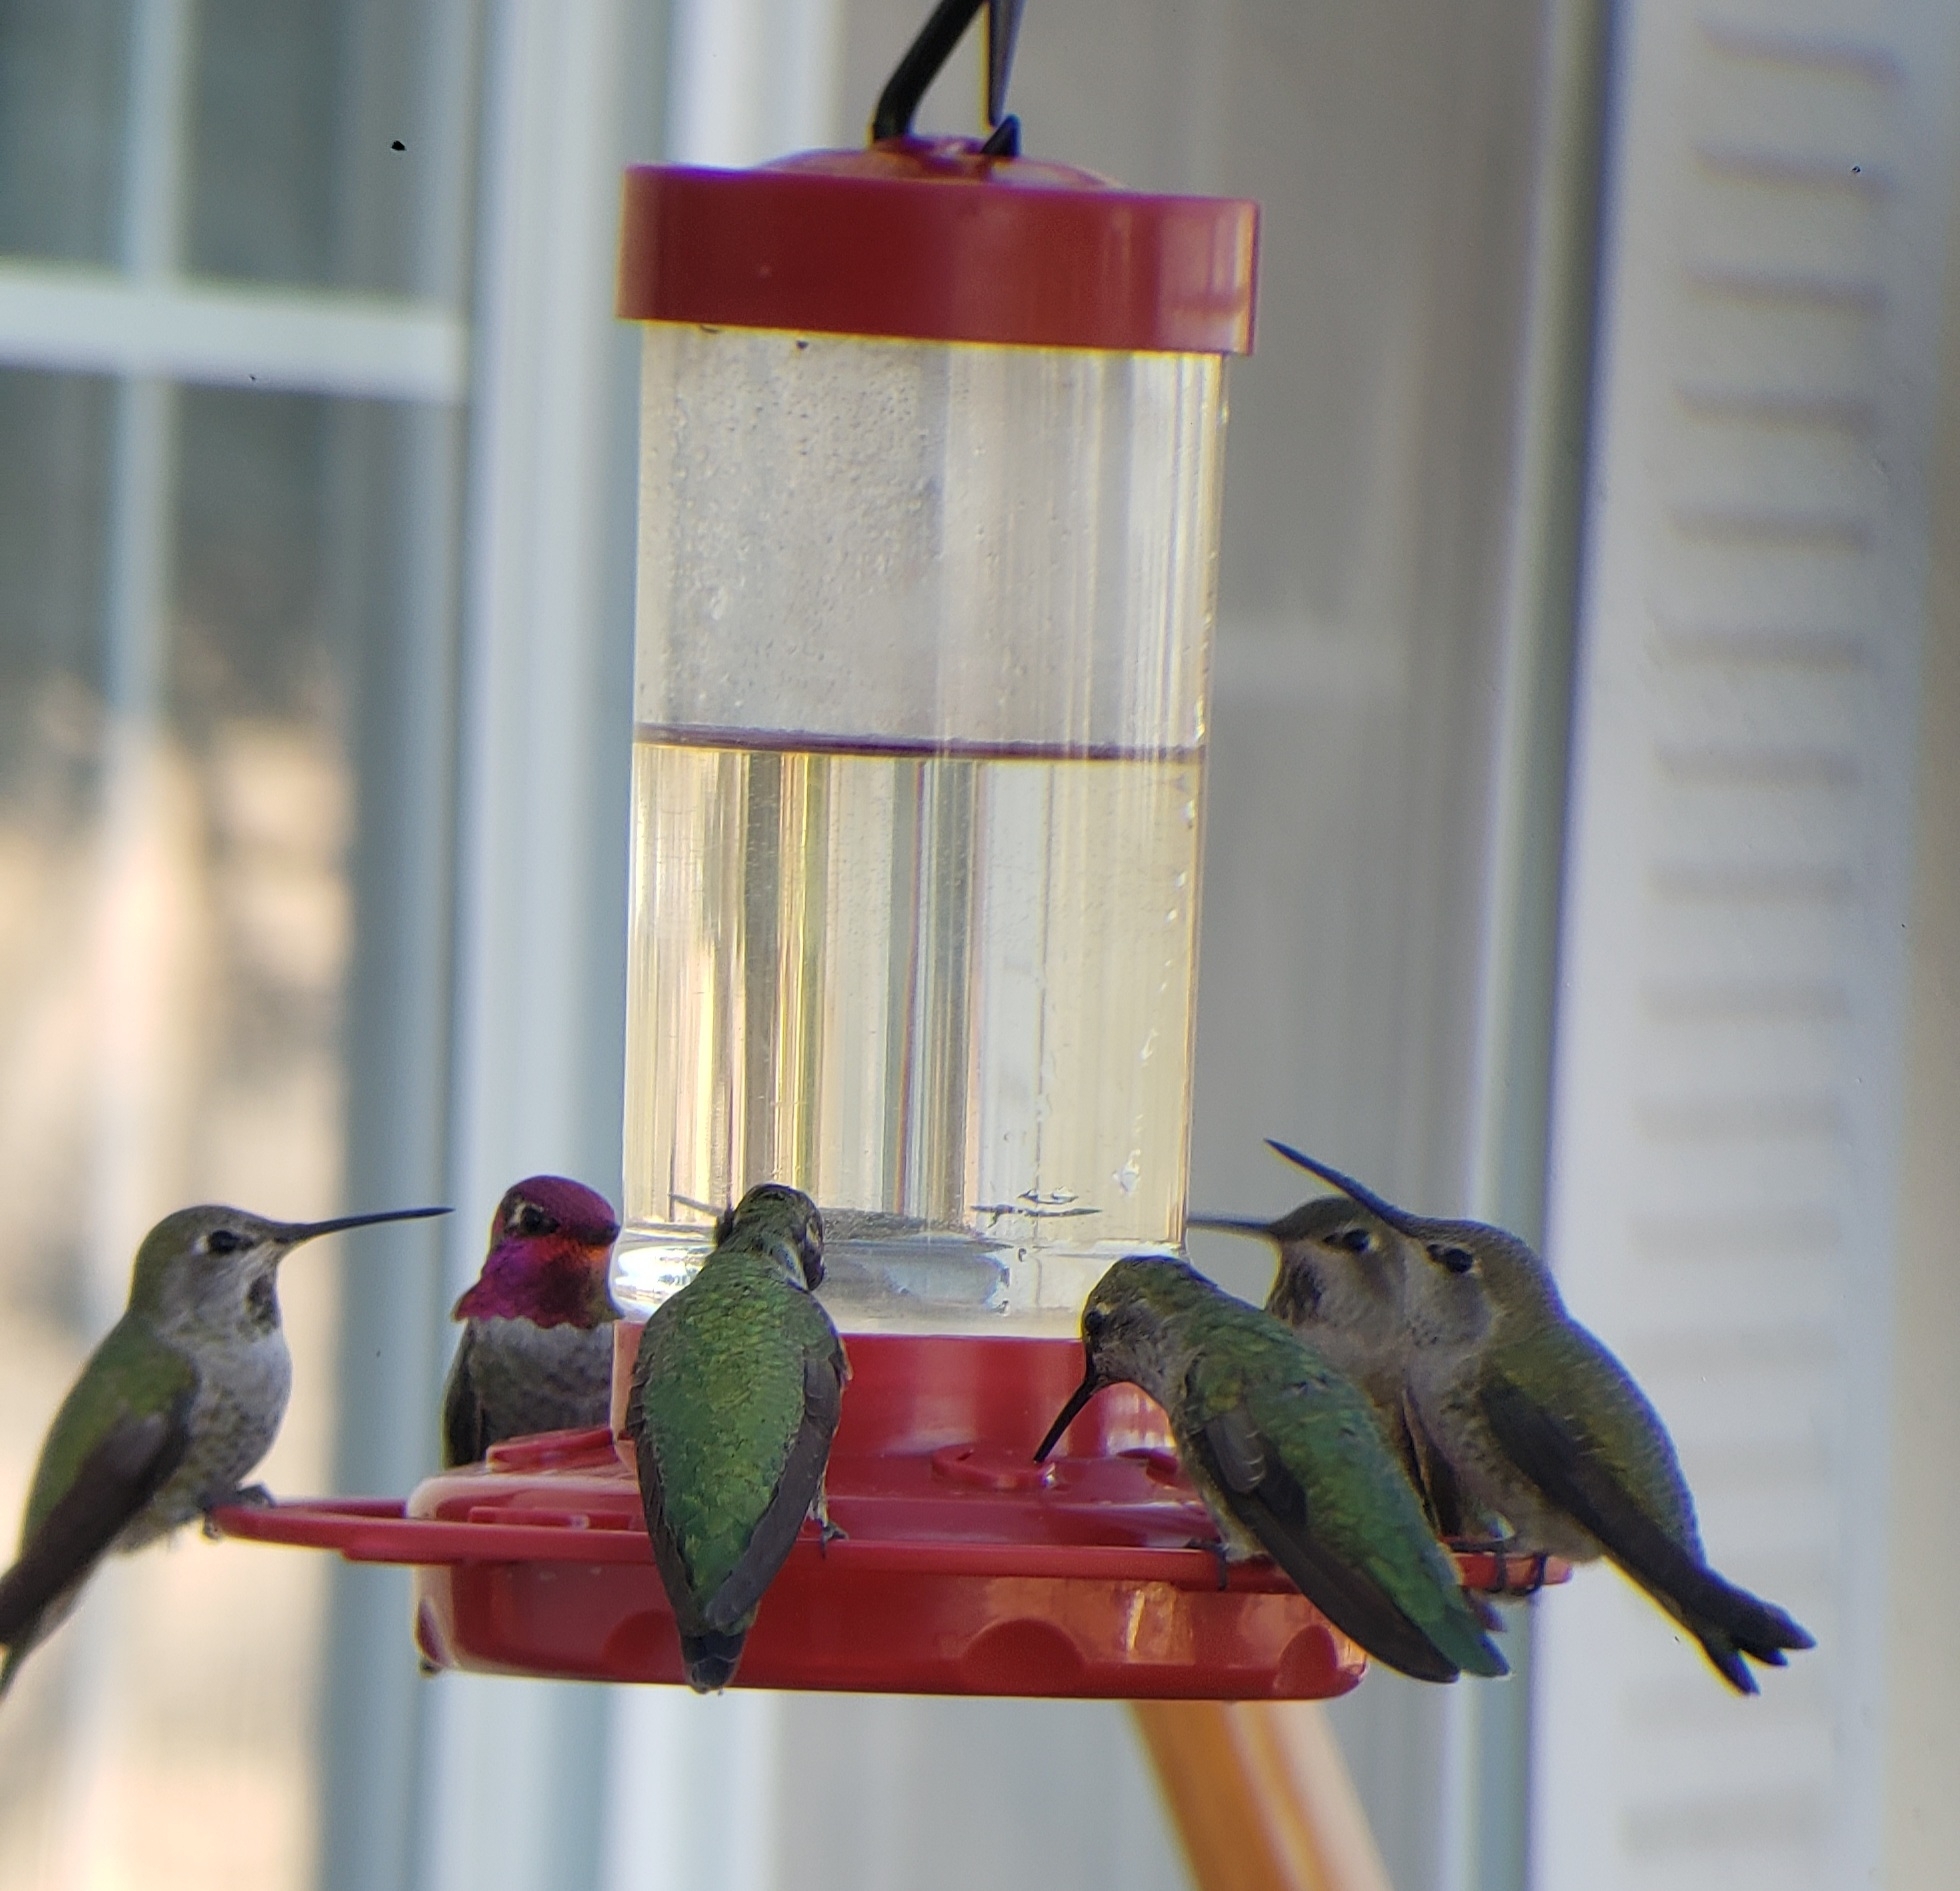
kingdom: Animalia
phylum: Chordata
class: Aves
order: Apodiformes
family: Trochilidae
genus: Calypte
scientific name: Calypte anna
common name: Anna's hummingbird
